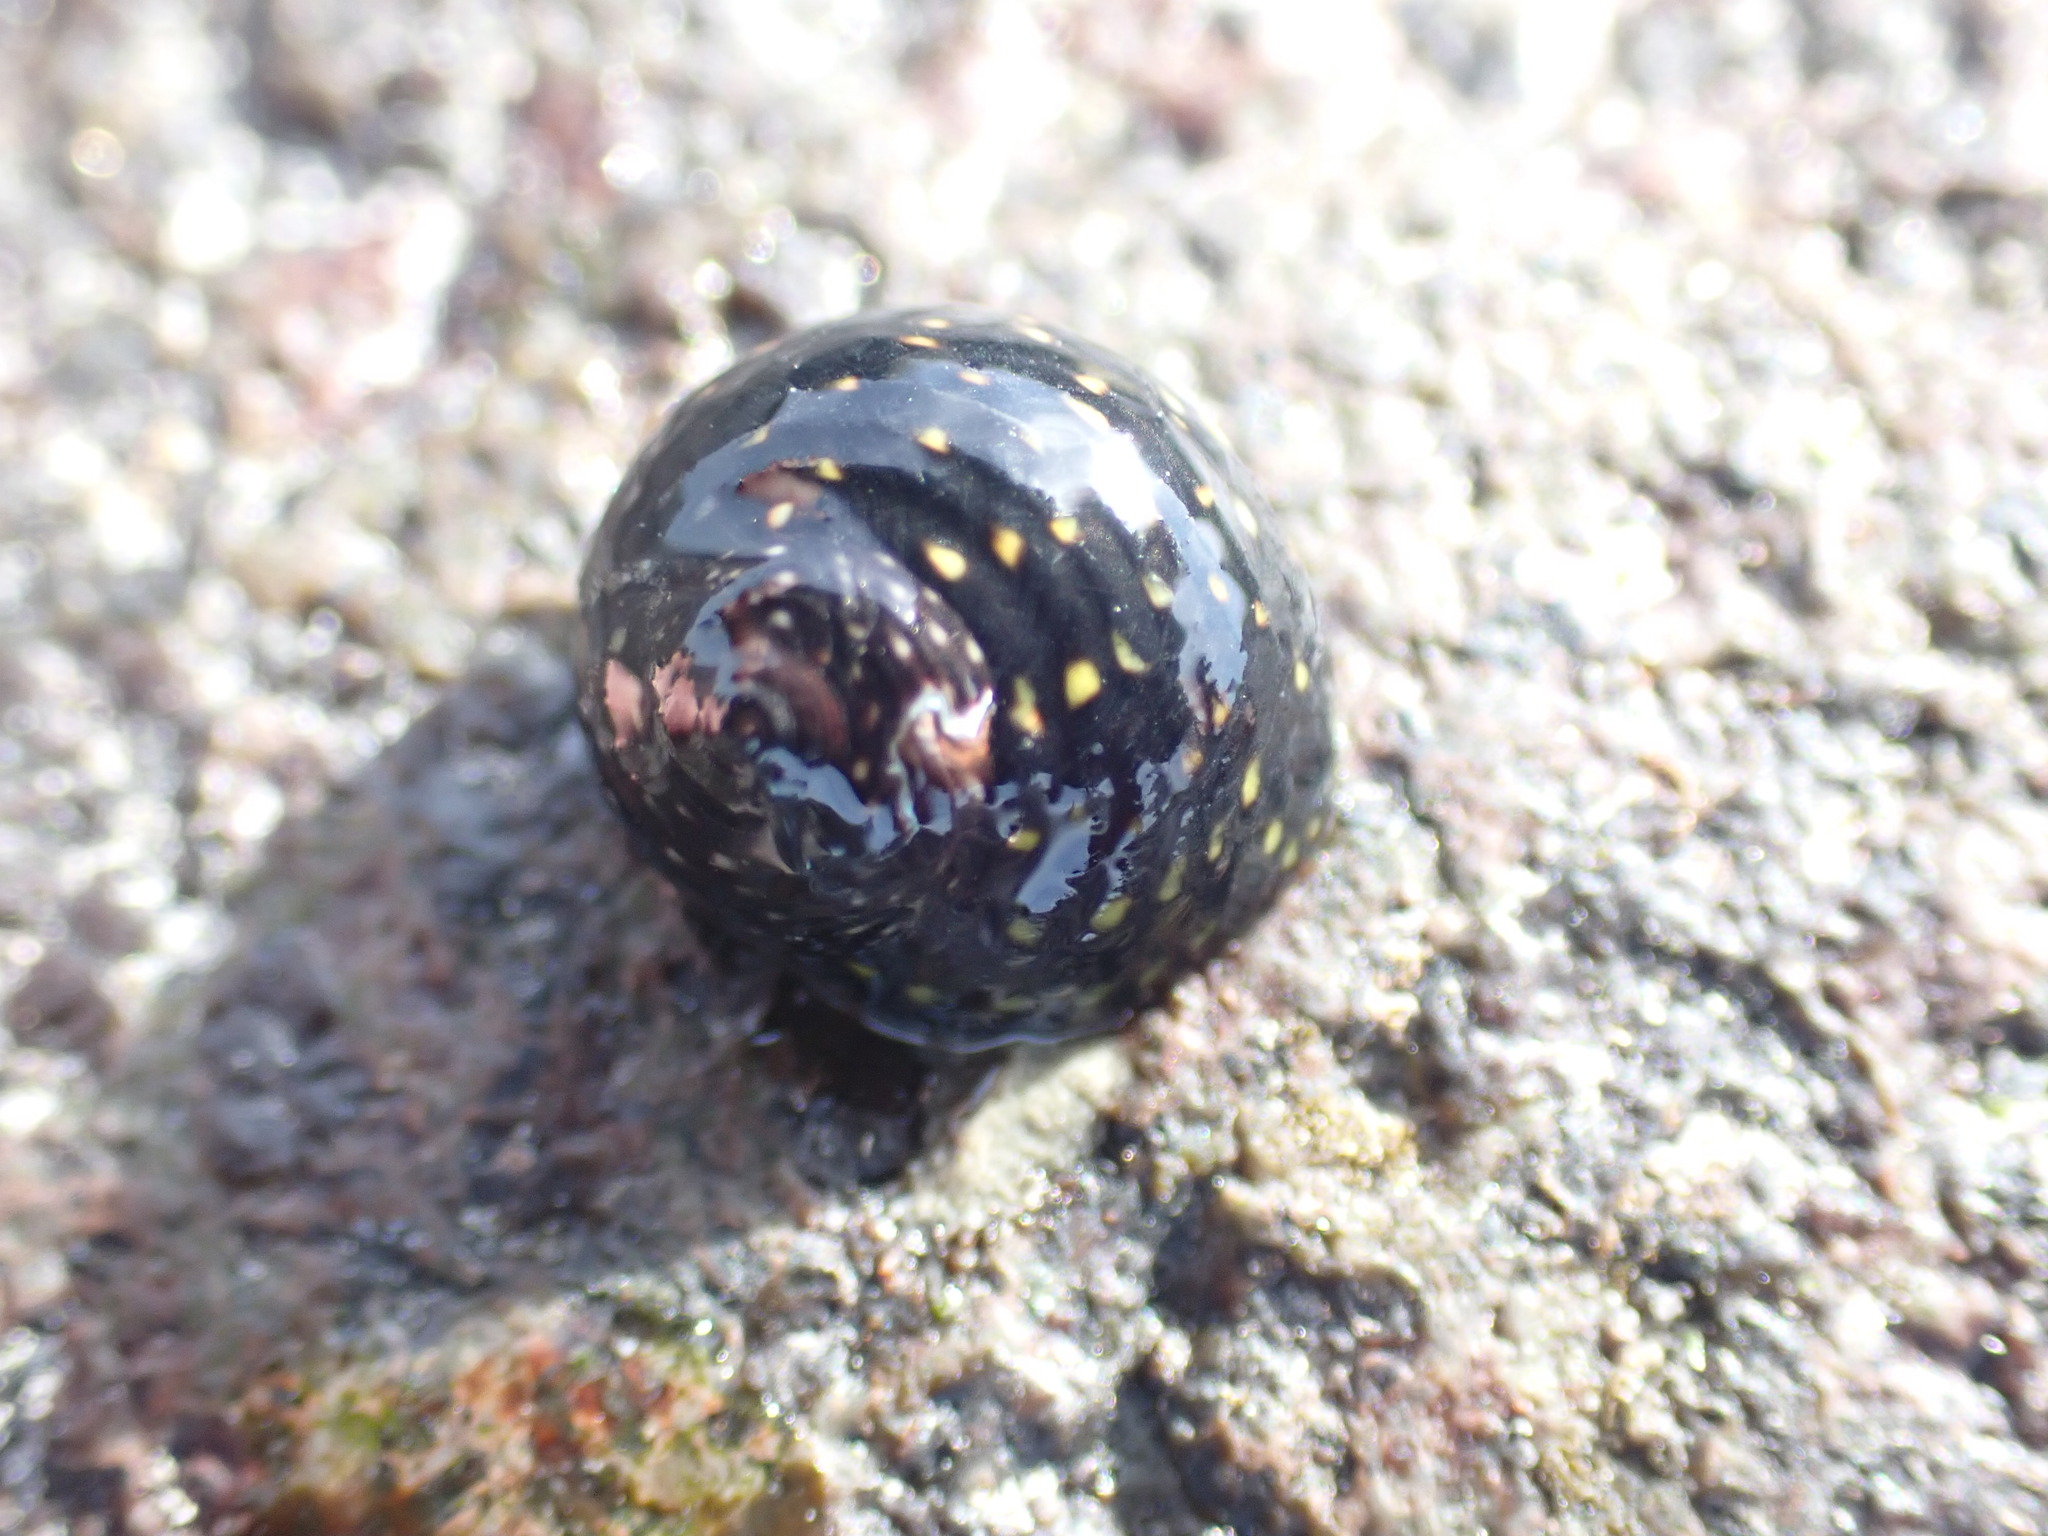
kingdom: Animalia
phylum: Mollusca
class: Gastropoda
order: Trochida
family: Trochidae
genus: Diloma
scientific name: Diloma aridum
